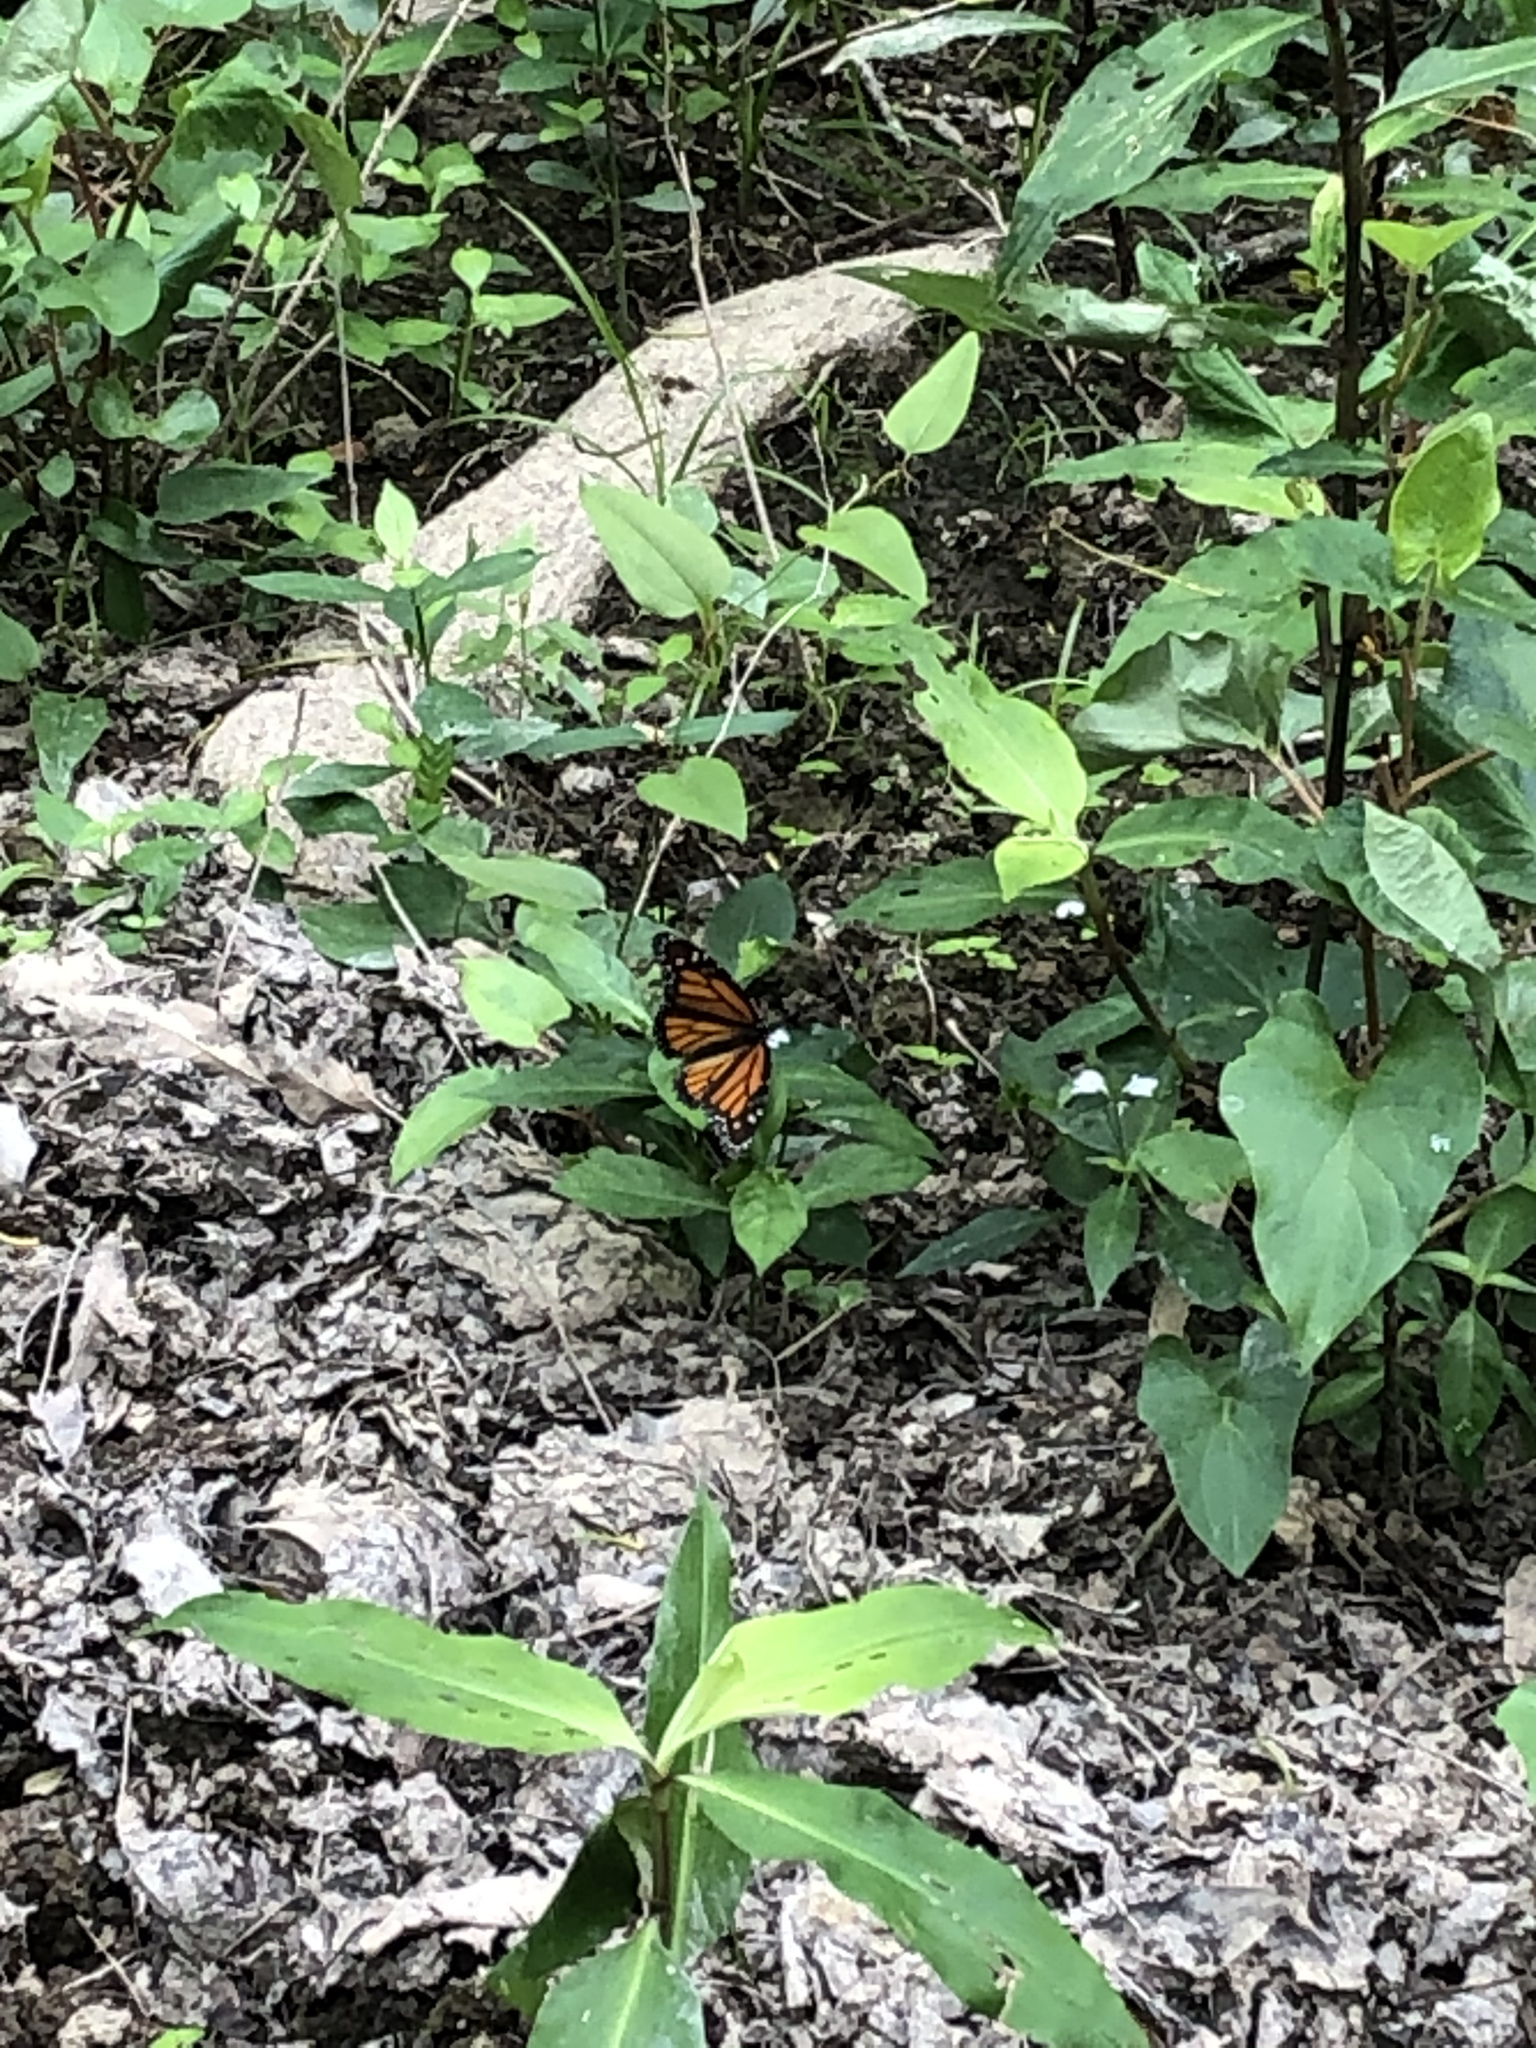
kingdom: Animalia
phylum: Arthropoda
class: Insecta
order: Lepidoptera
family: Nymphalidae
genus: Danaus
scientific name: Danaus plexippus
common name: Monarch
